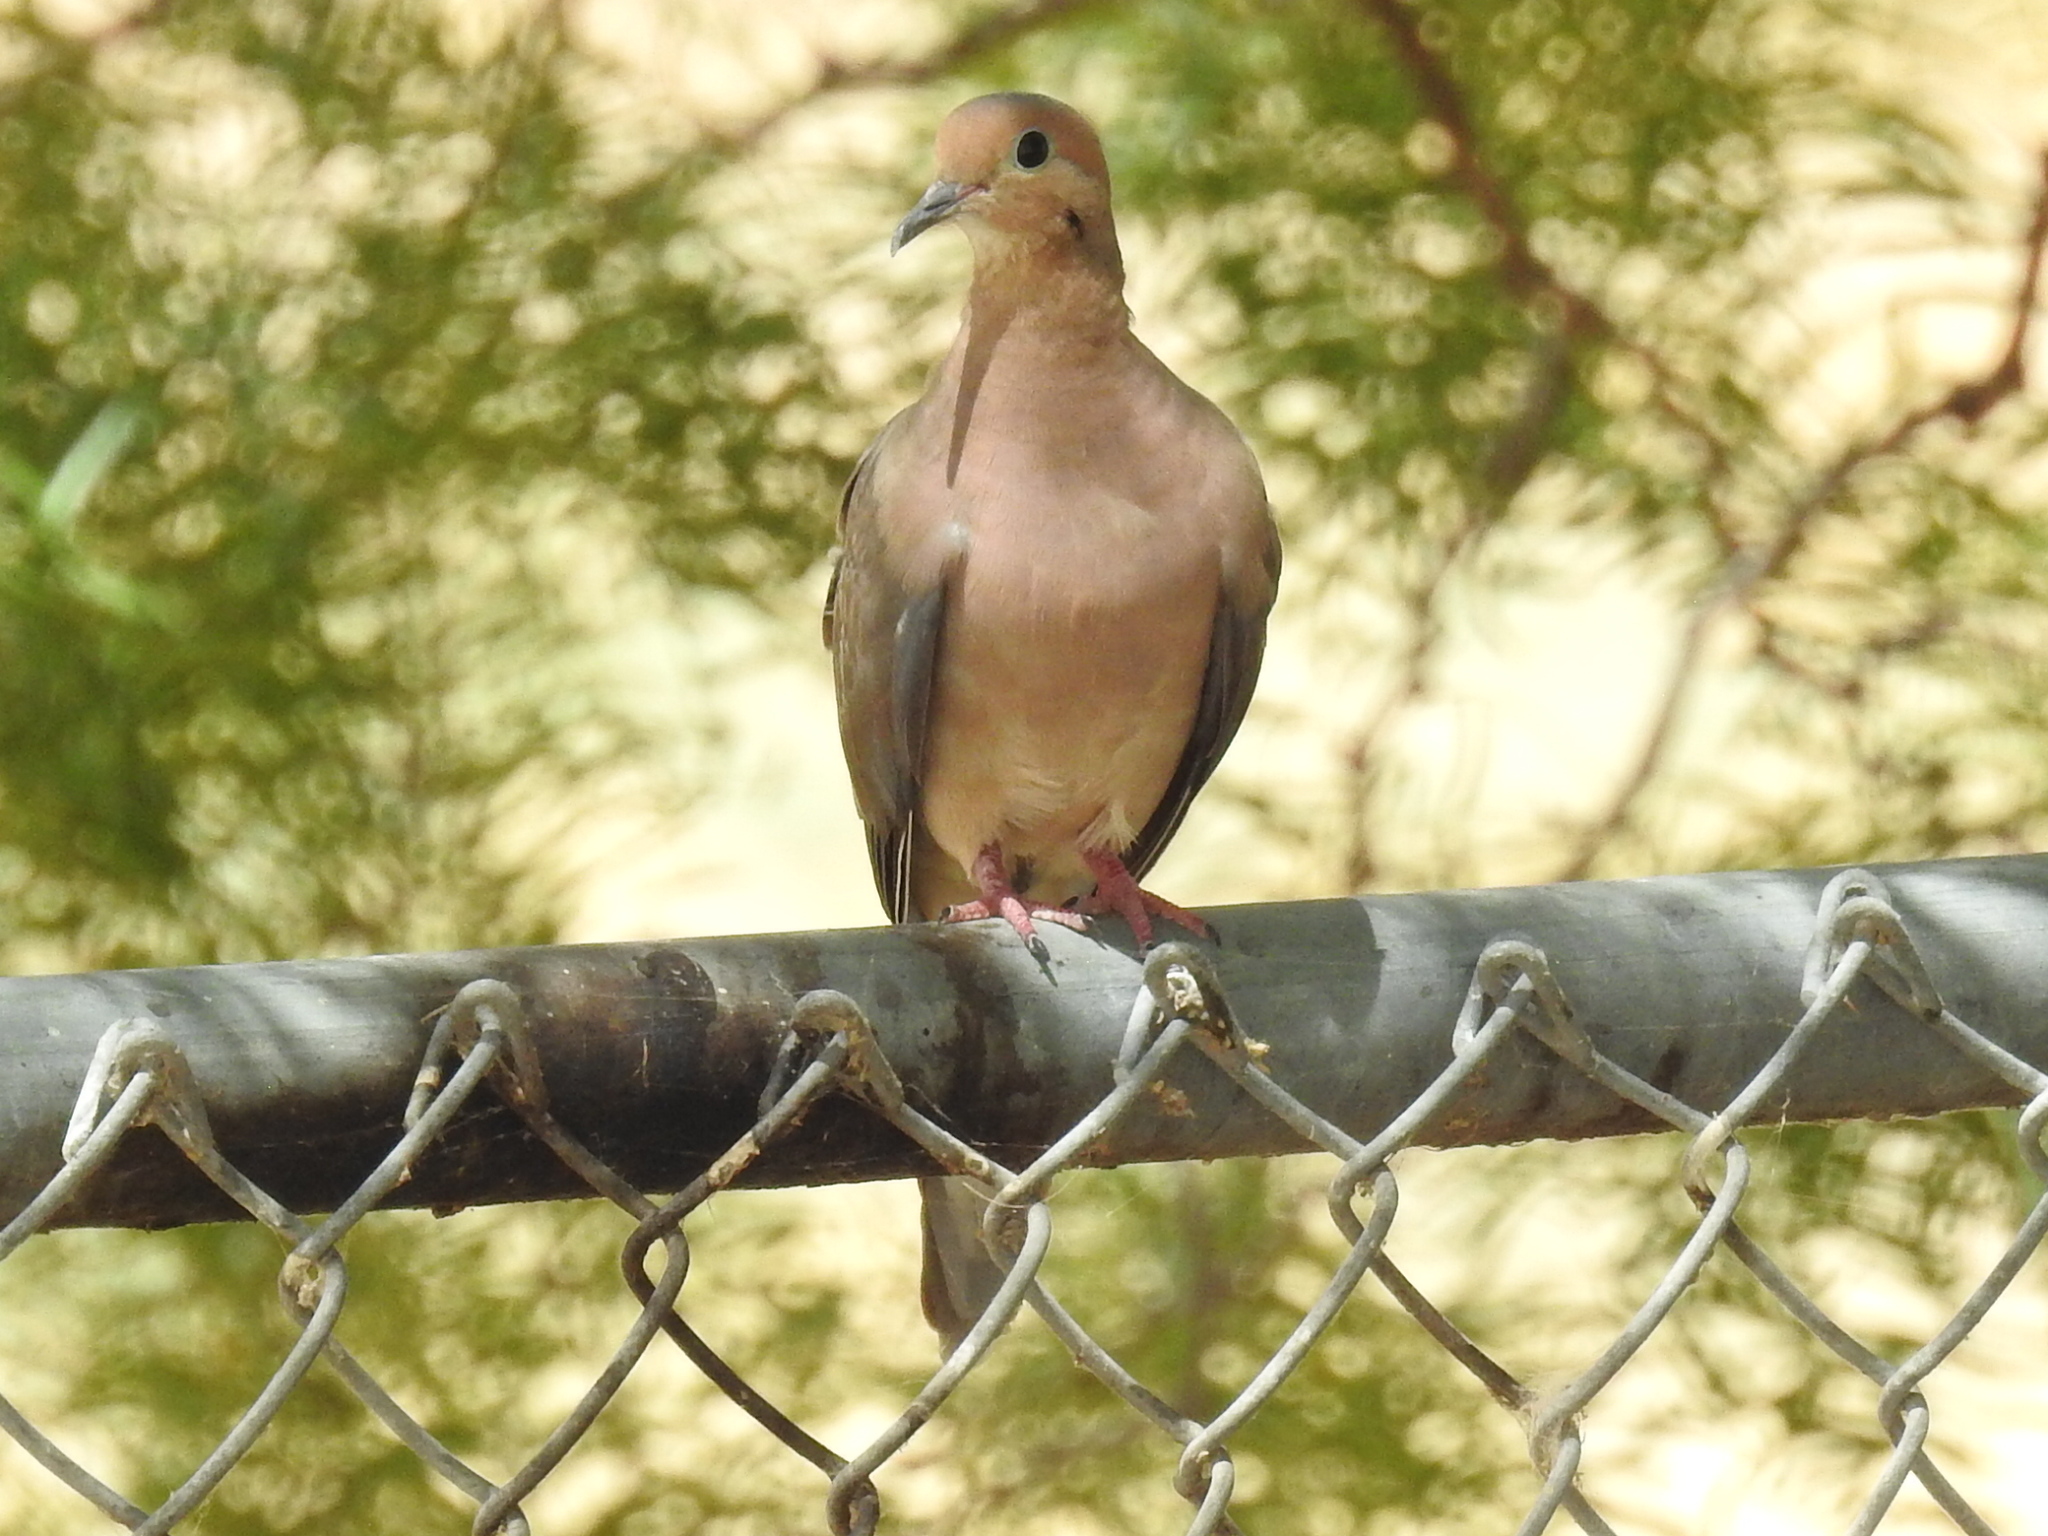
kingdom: Animalia
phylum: Chordata
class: Aves
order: Columbiformes
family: Columbidae
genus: Zenaida
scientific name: Zenaida macroura
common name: Mourning dove
